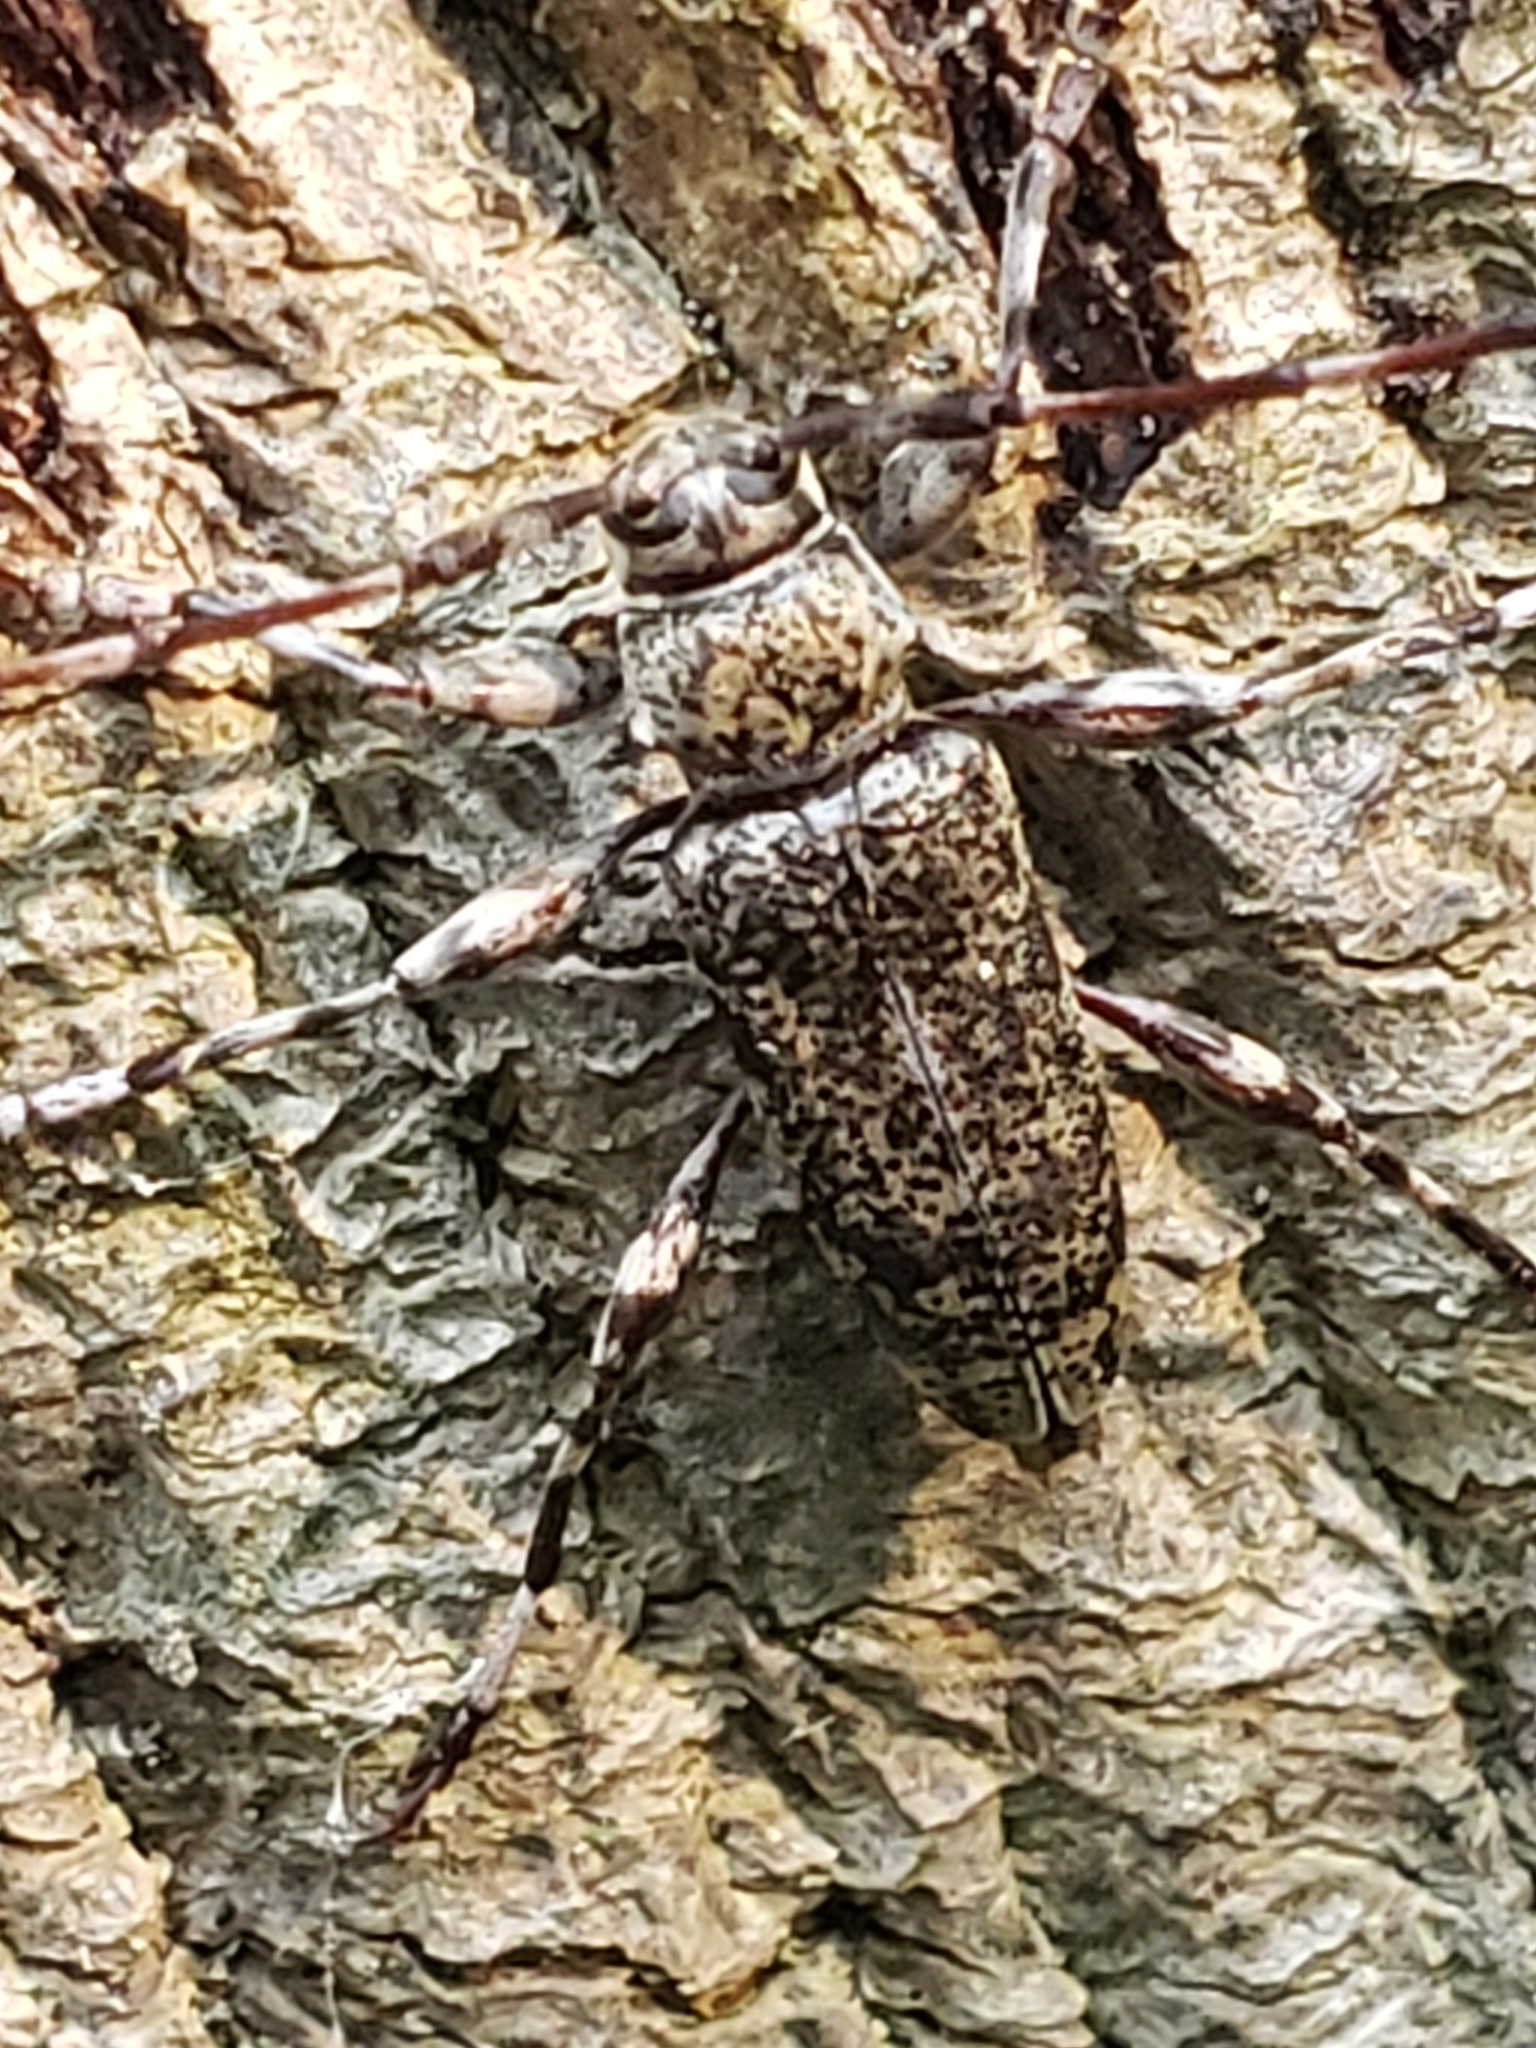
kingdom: Animalia
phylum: Arthropoda
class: Insecta
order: Coleoptera
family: Cerambycidae
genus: Graphisurus
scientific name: Graphisurus fasciatus
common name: Banded graphisurus
